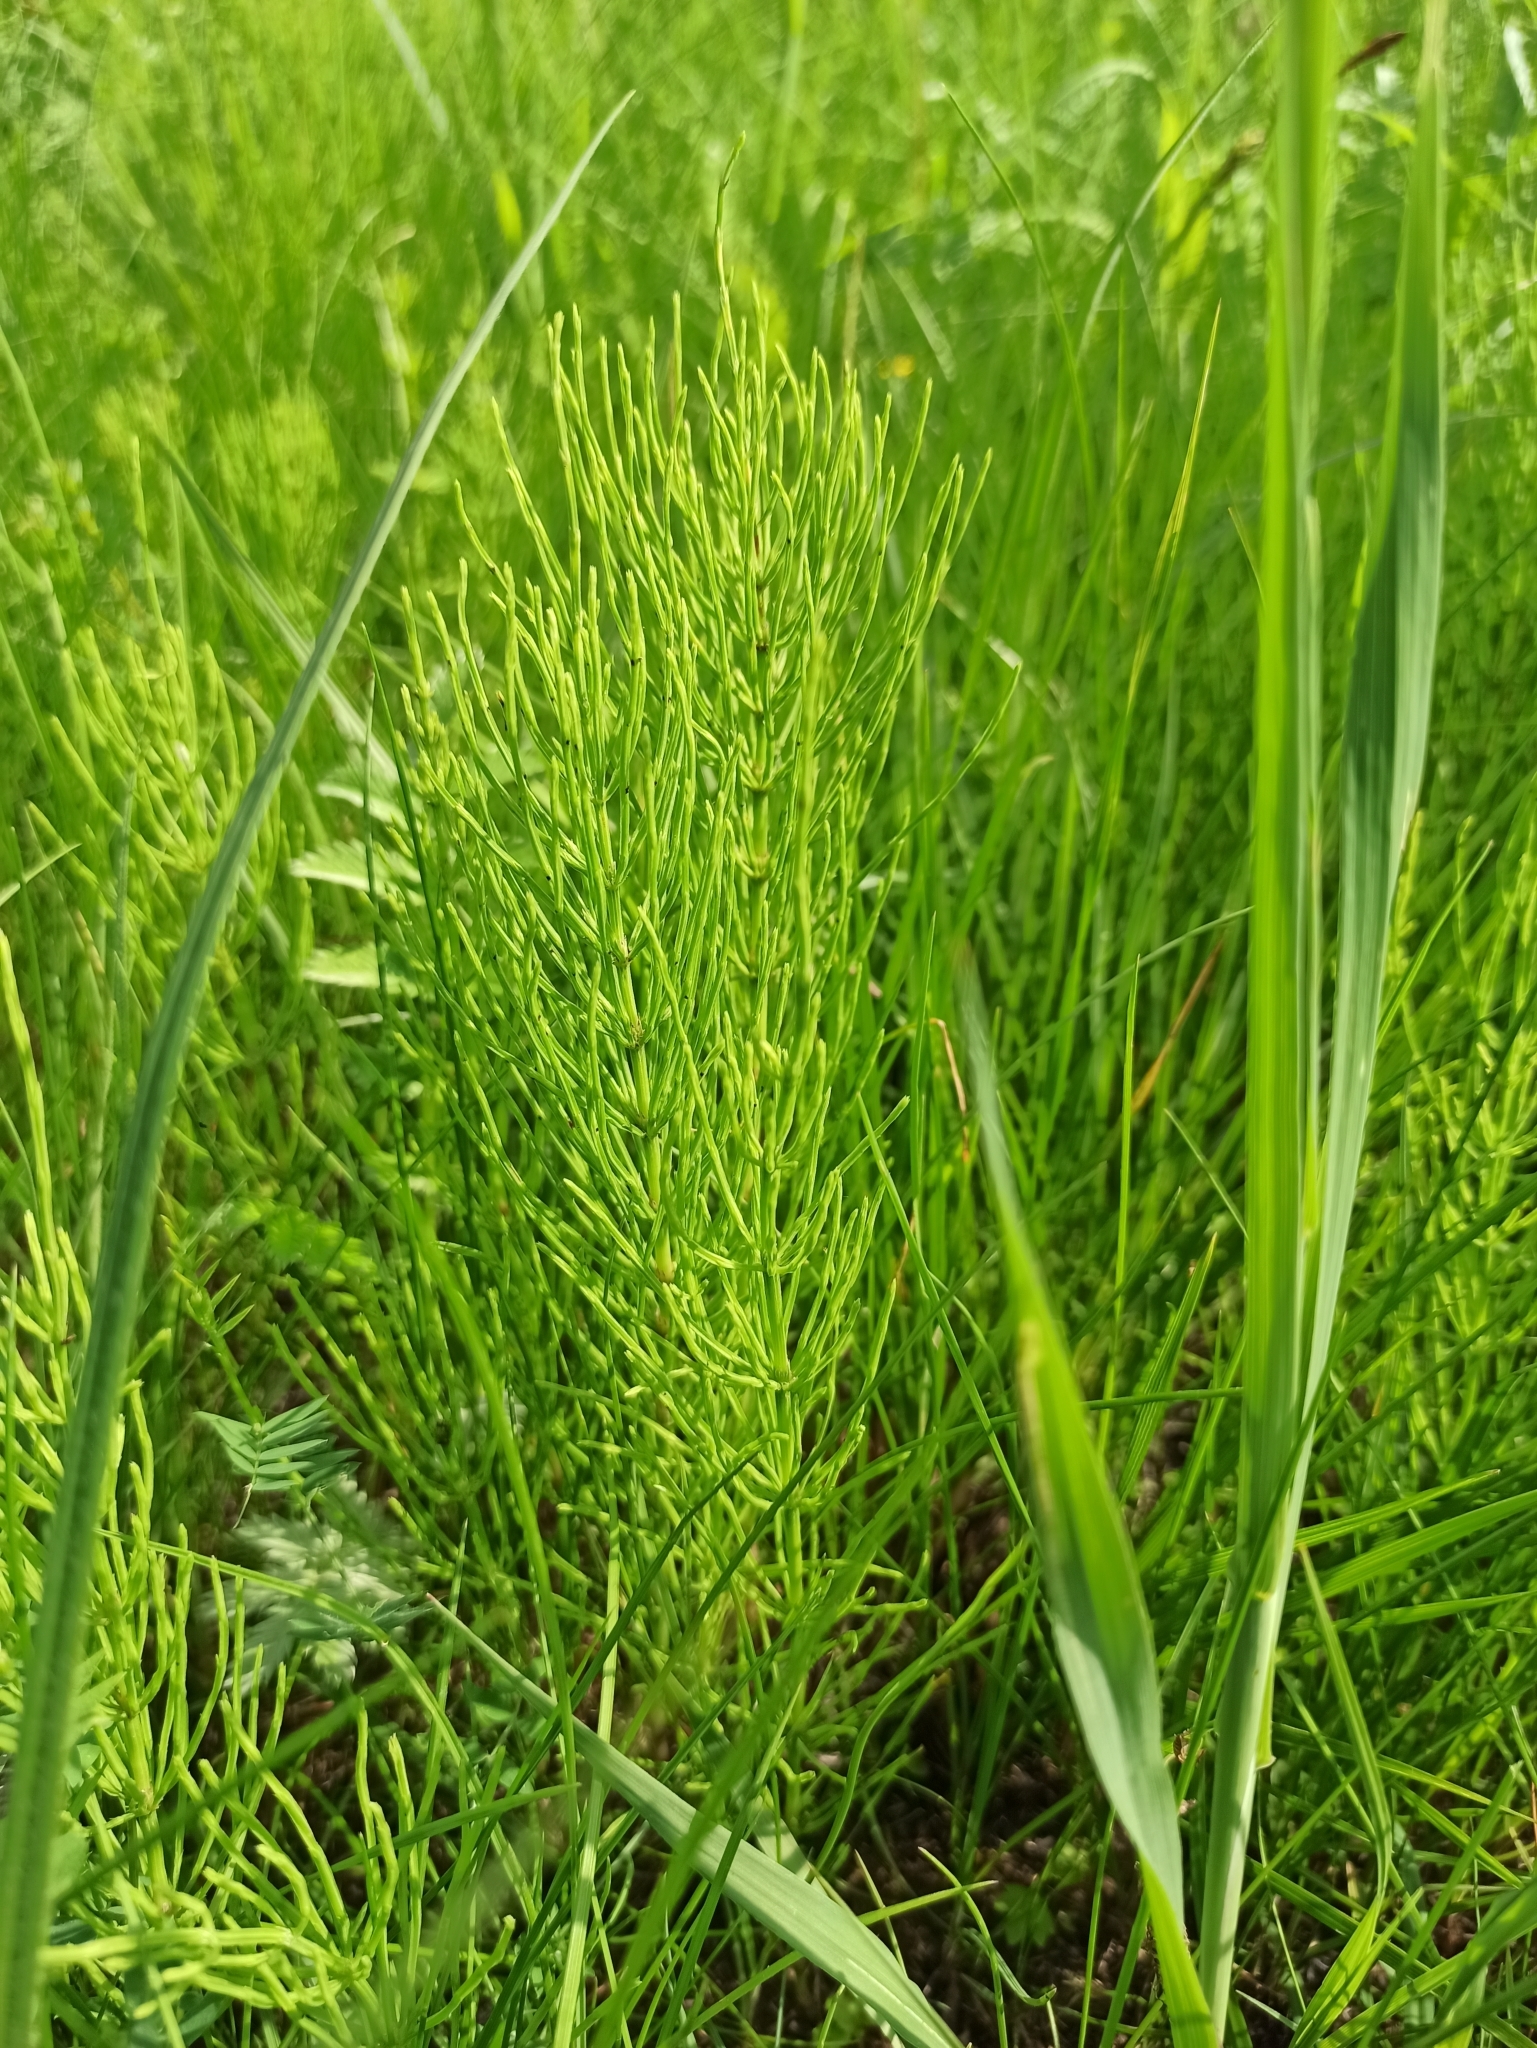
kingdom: Plantae
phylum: Tracheophyta
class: Polypodiopsida
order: Equisetales
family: Equisetaceae
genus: Equisetum
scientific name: Equisetum arvense
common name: Field horsetail
